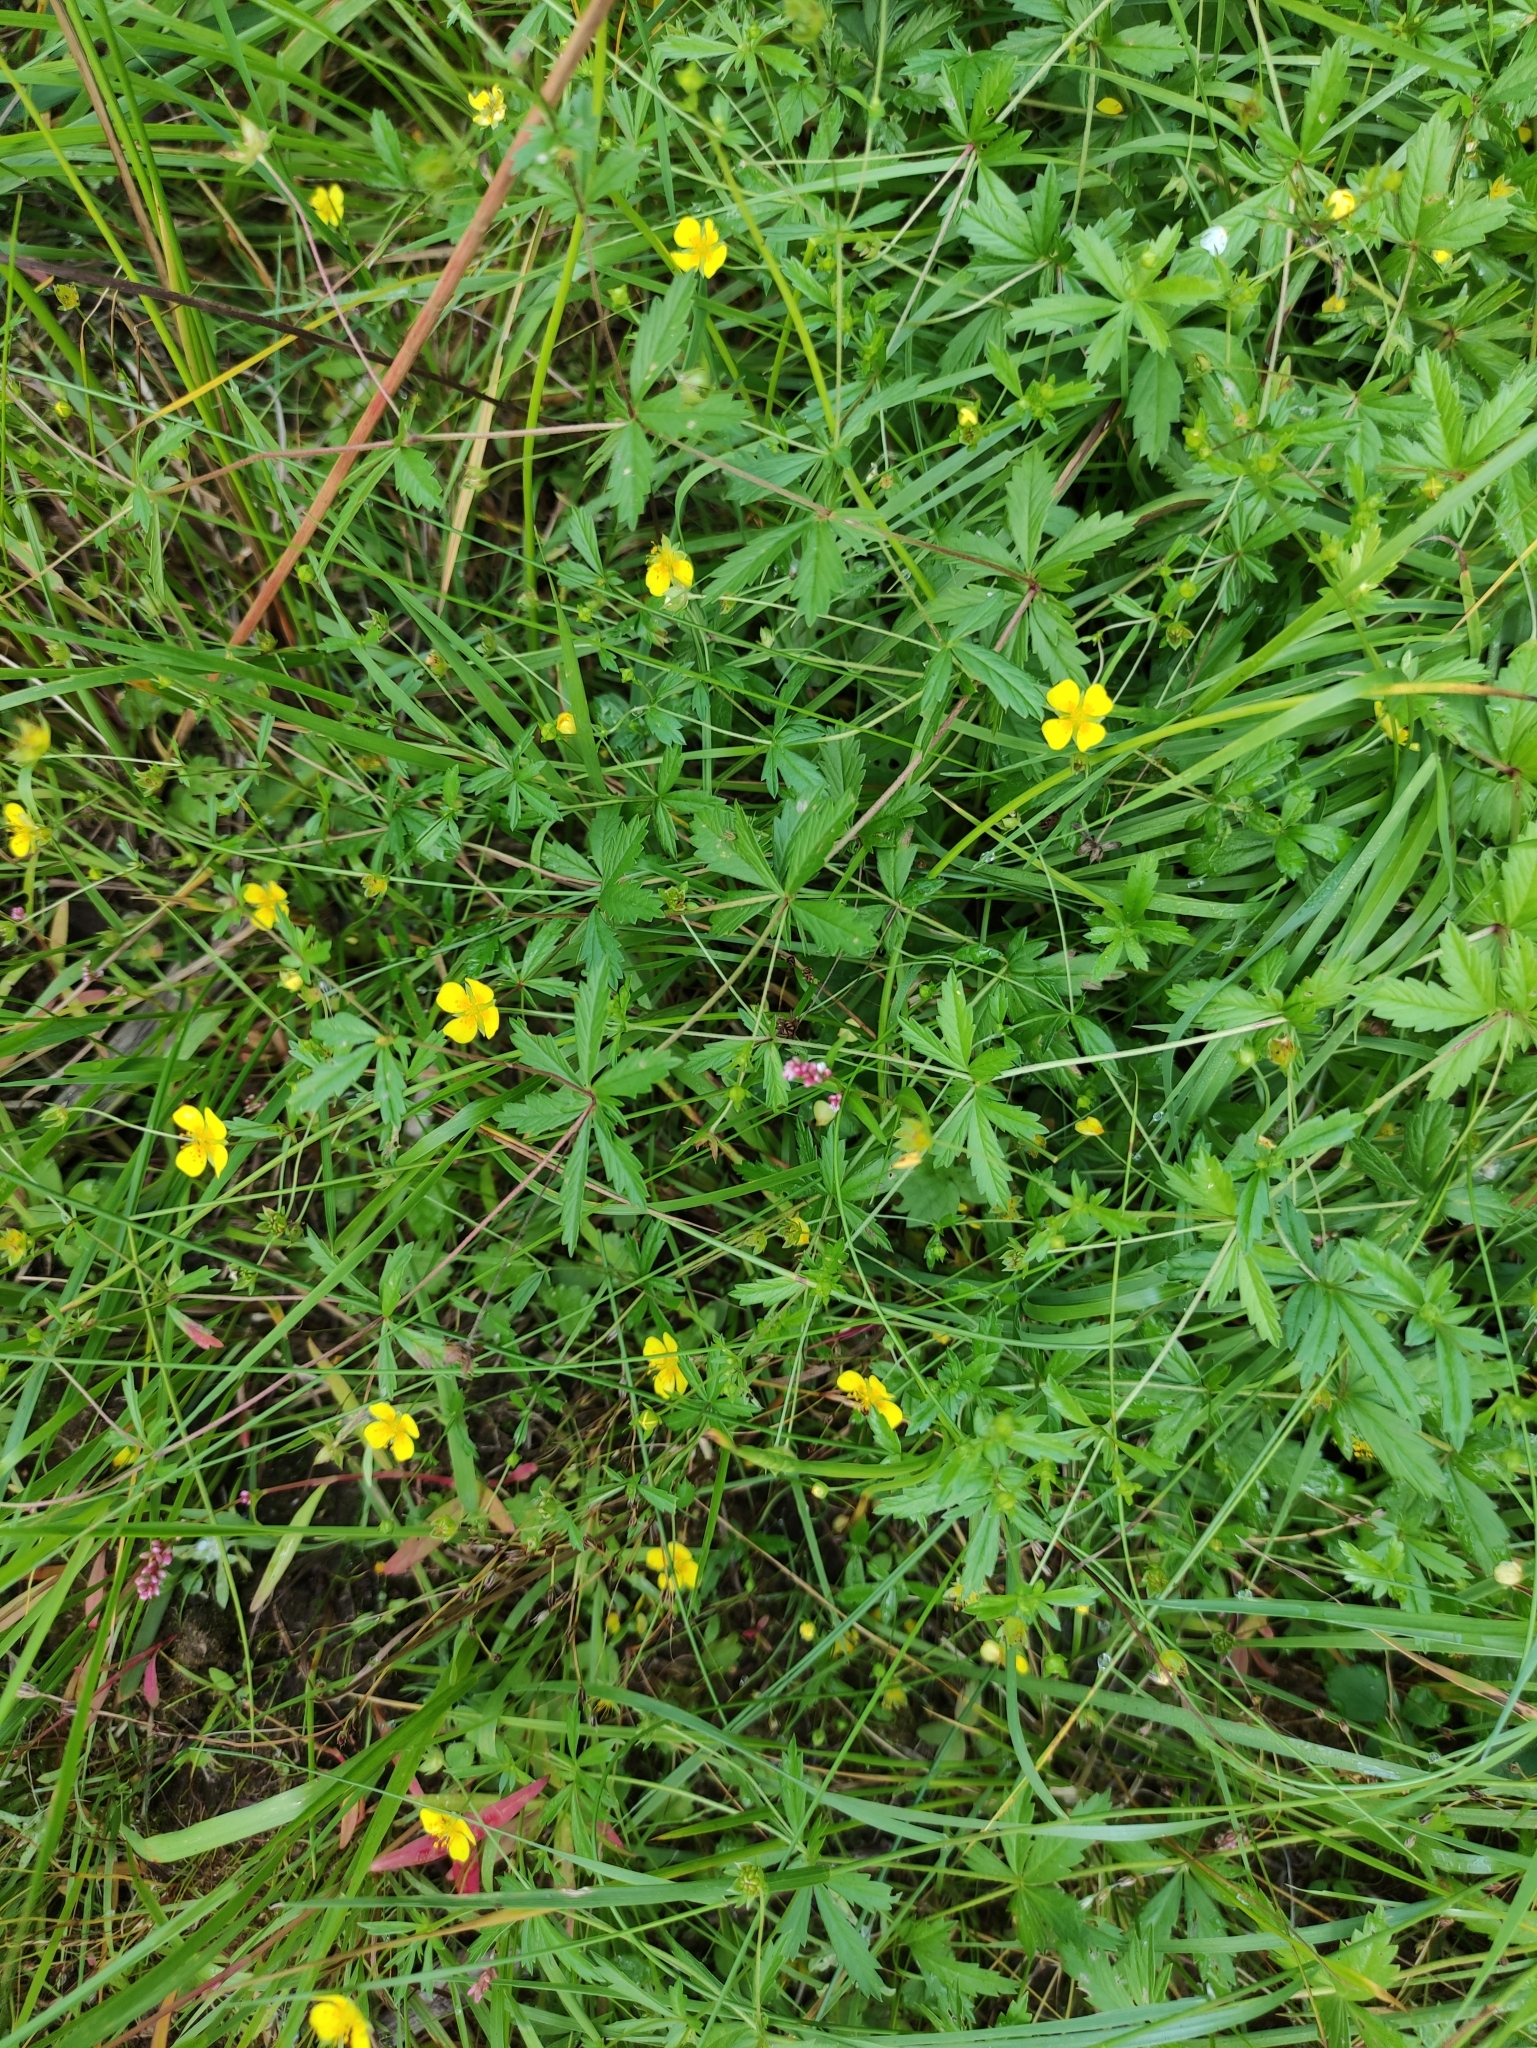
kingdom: Plantae
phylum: Tracheophyta
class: Magnoliopsida
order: Rosales
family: Rosaceae
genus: Potentilla
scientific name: Potentilla erecta
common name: Tormentil
